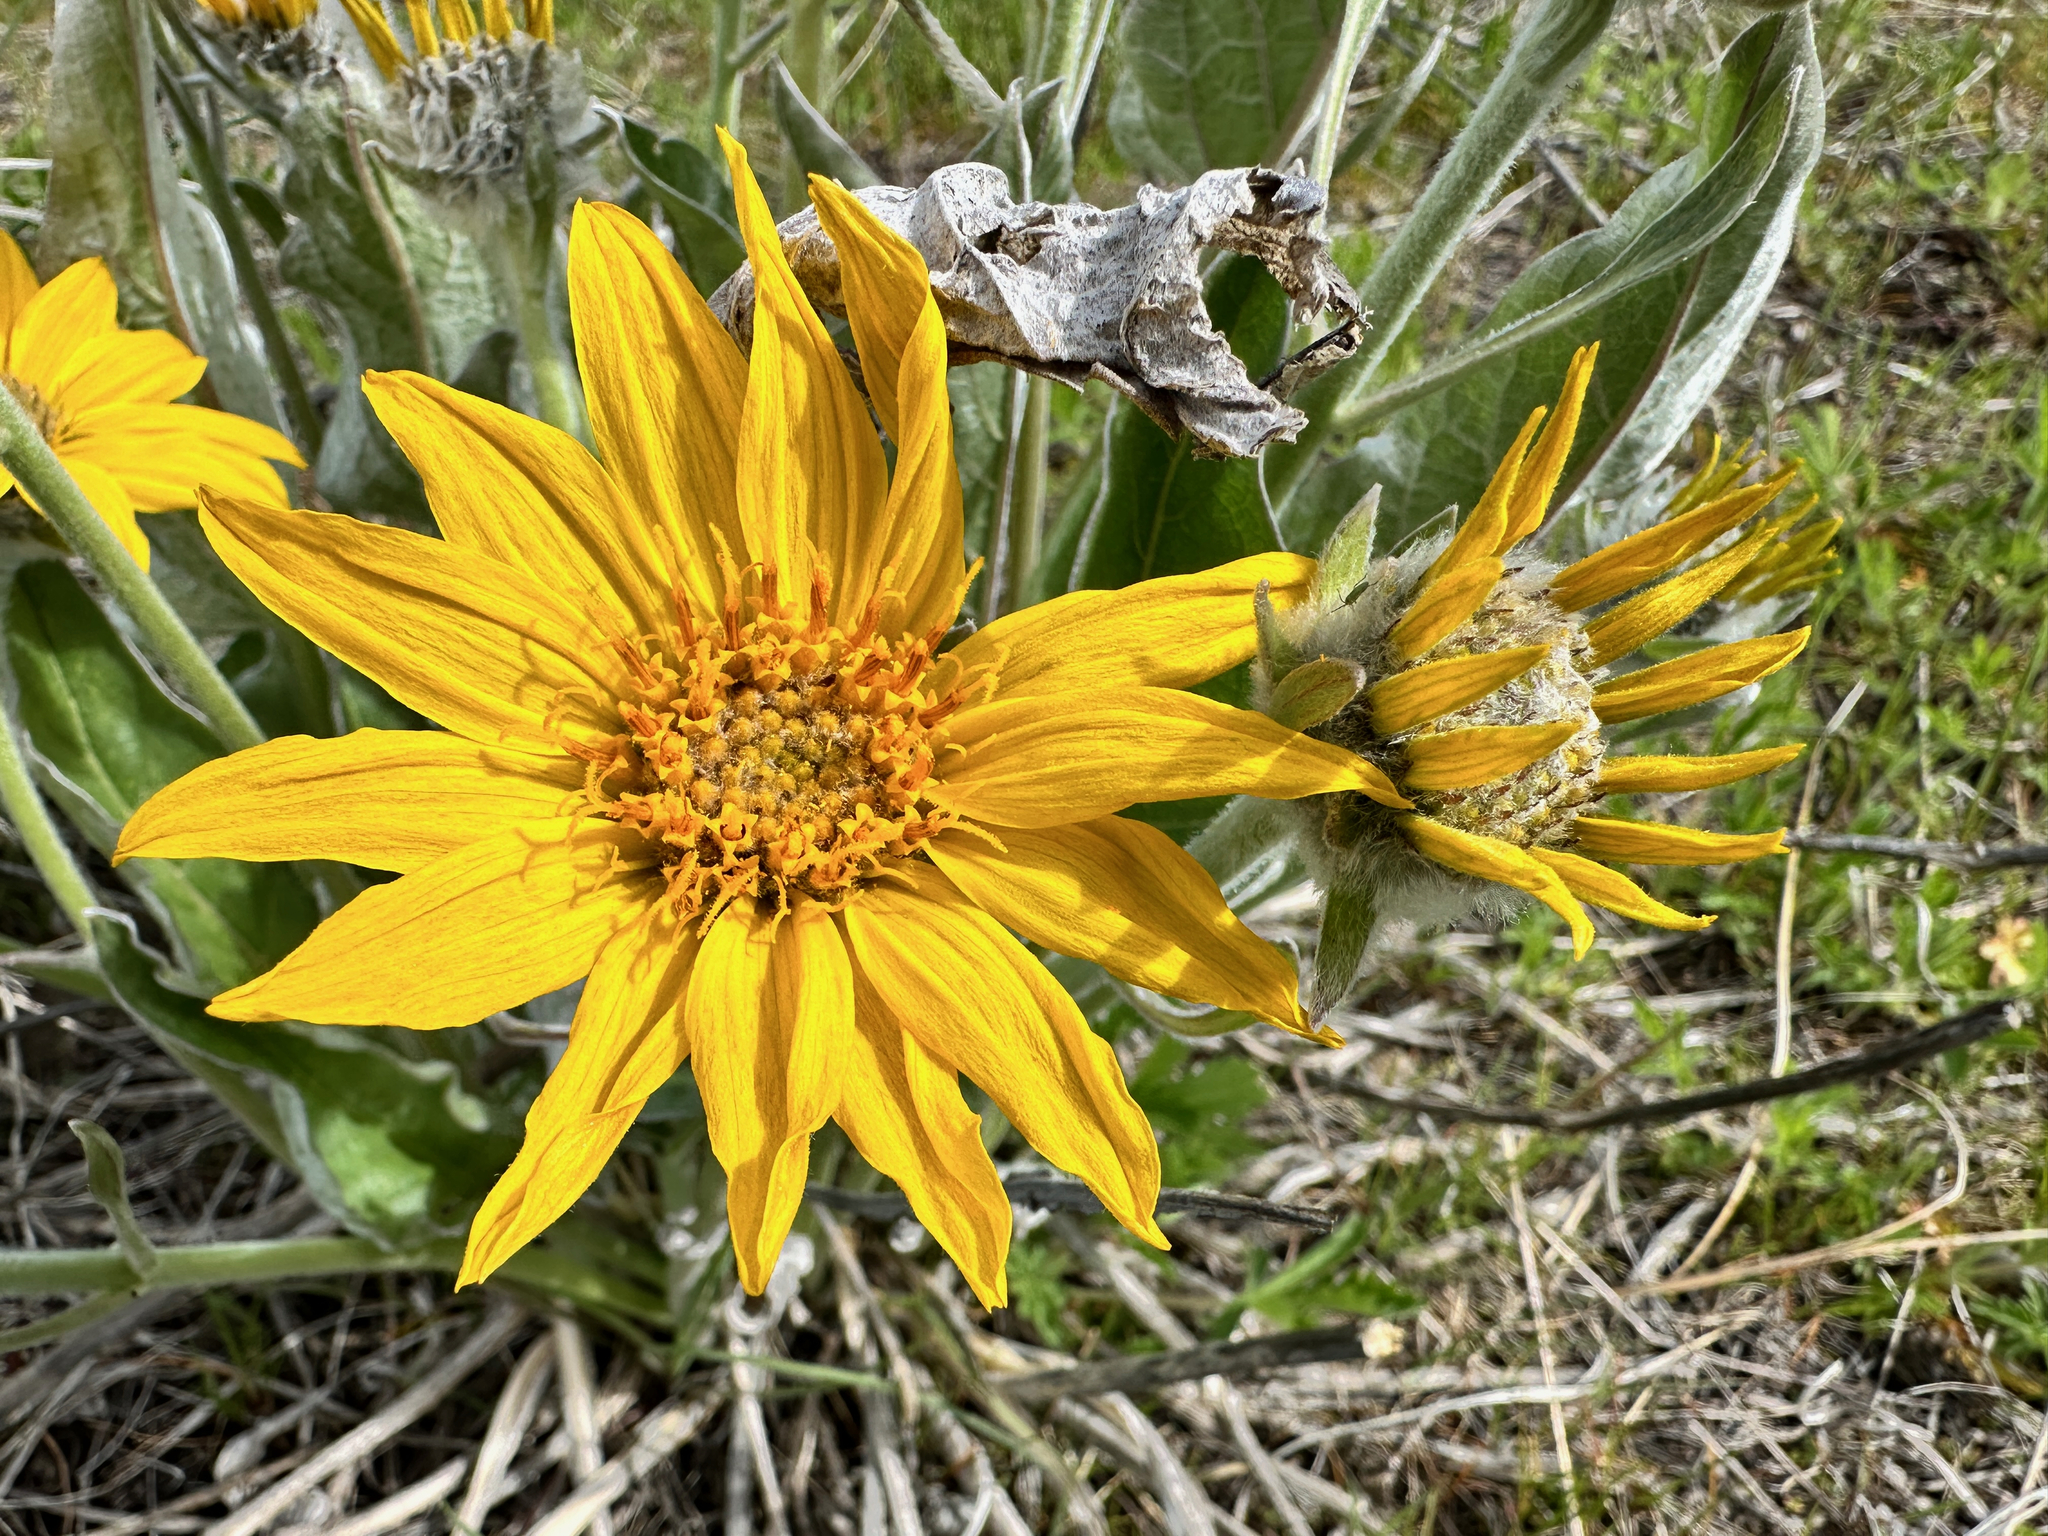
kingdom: Plantae
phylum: Tracheophyta
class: Magnoliopsida
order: Asterales
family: Asteraceae
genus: Wyethia
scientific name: Wyethia sagittata
